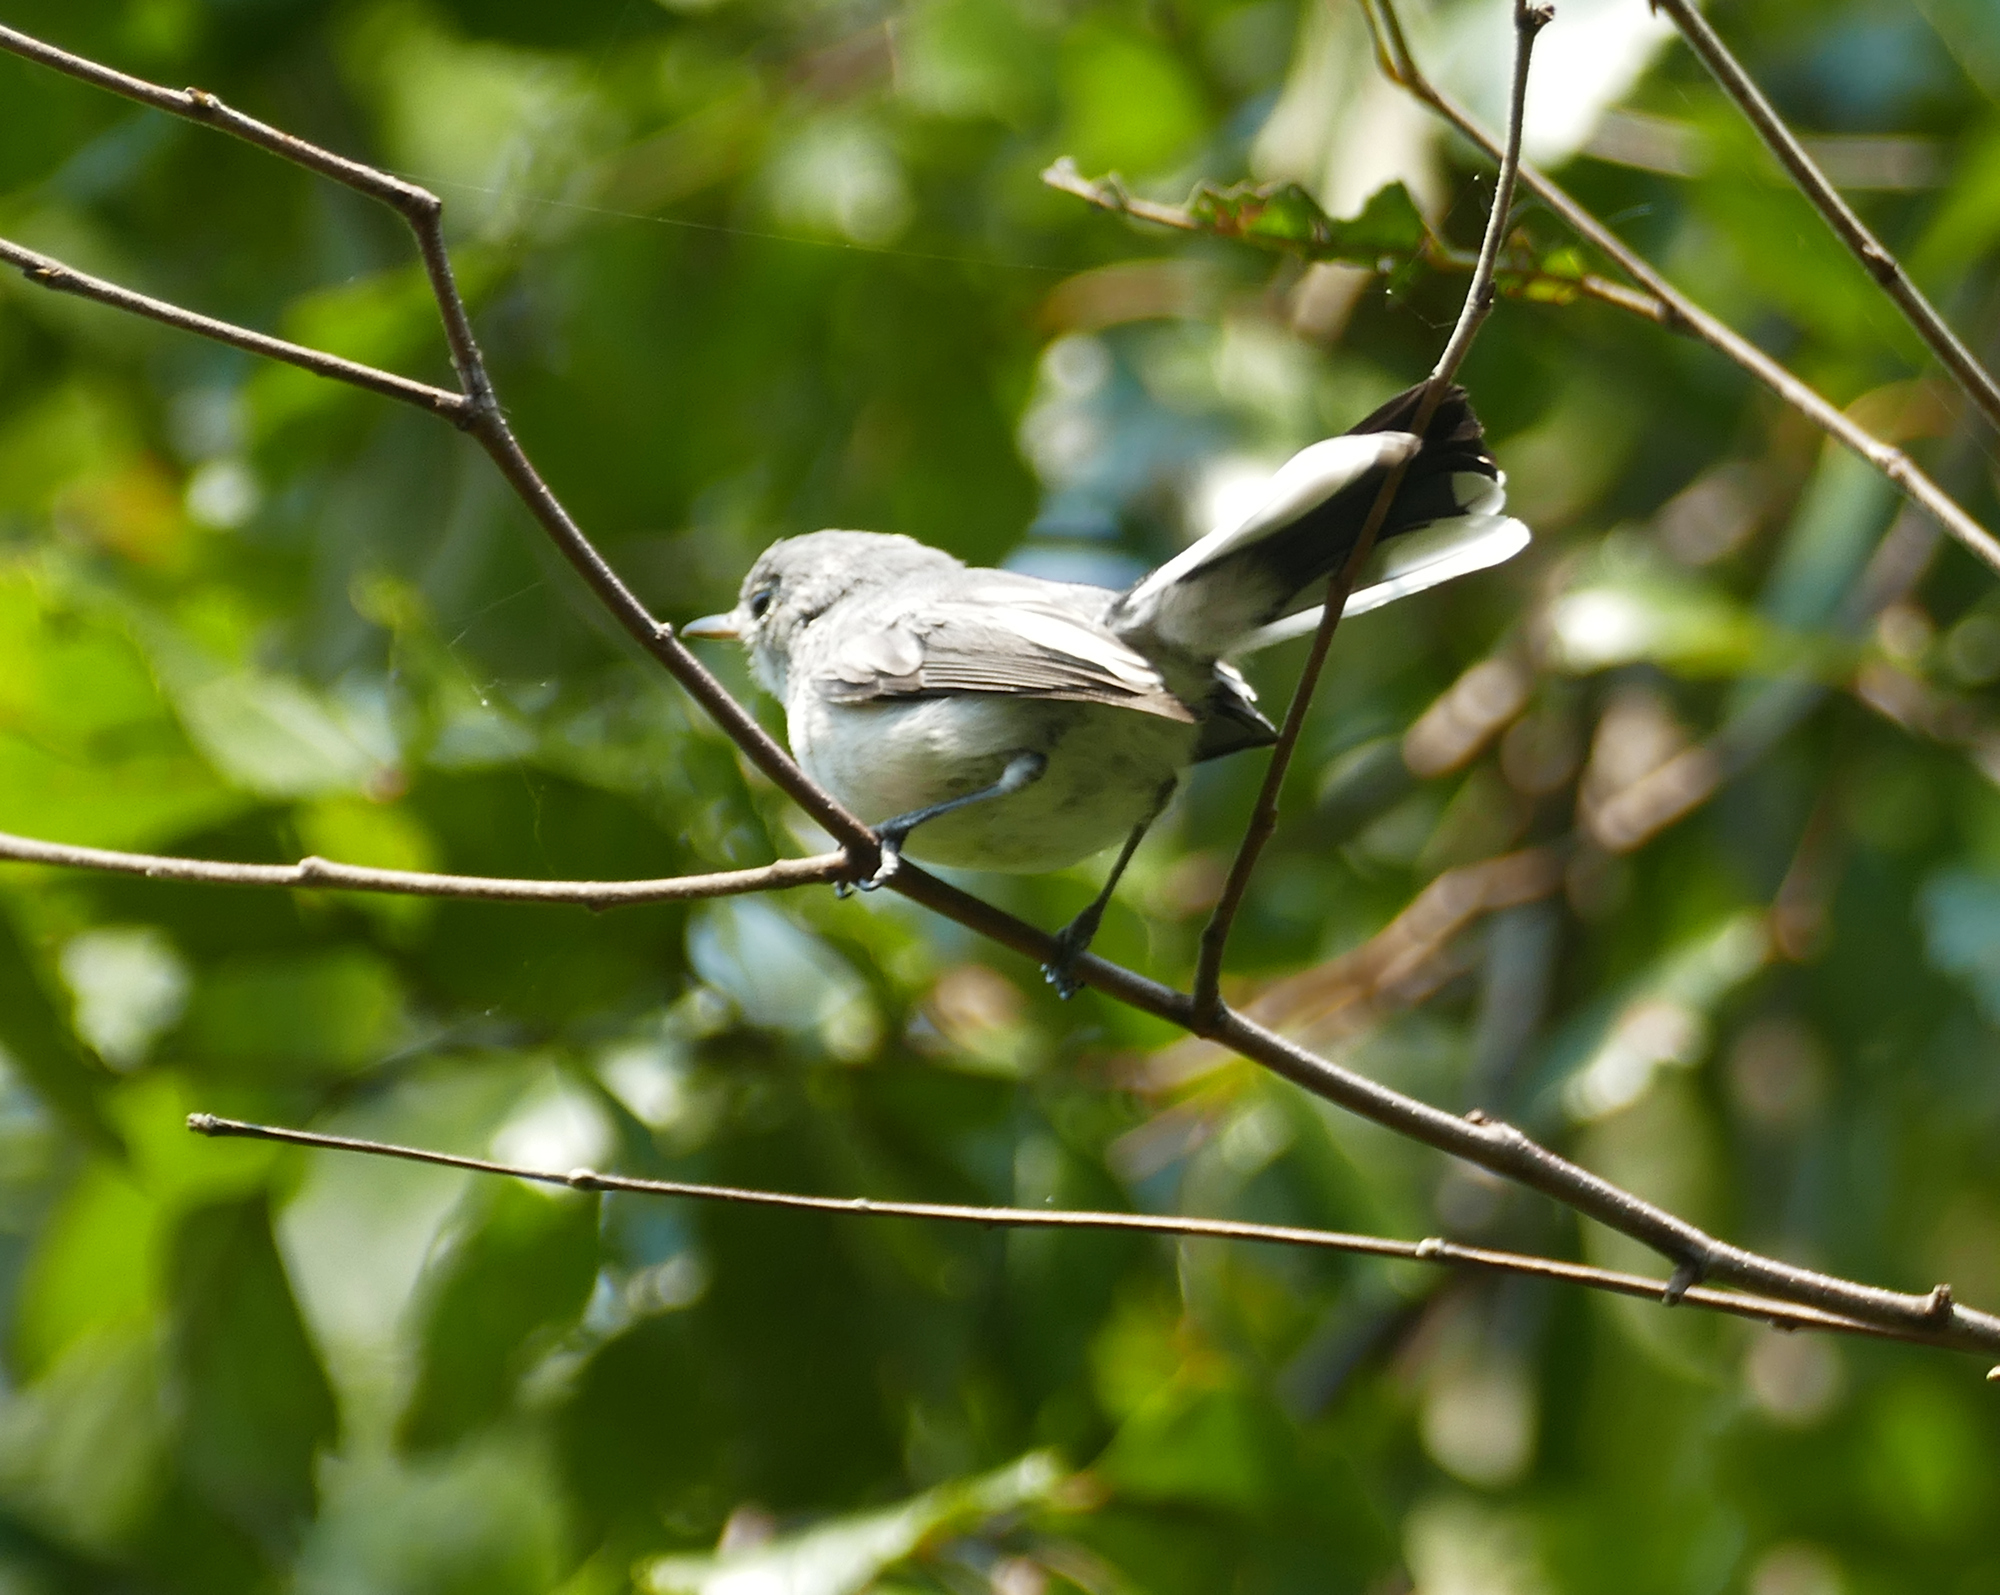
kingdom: Animalia
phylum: Chordata
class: Aves
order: Passeriformes
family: Polioptilidae
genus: Polioptila
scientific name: Polioptila caerulea
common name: Blue-gray gnatcatcher
